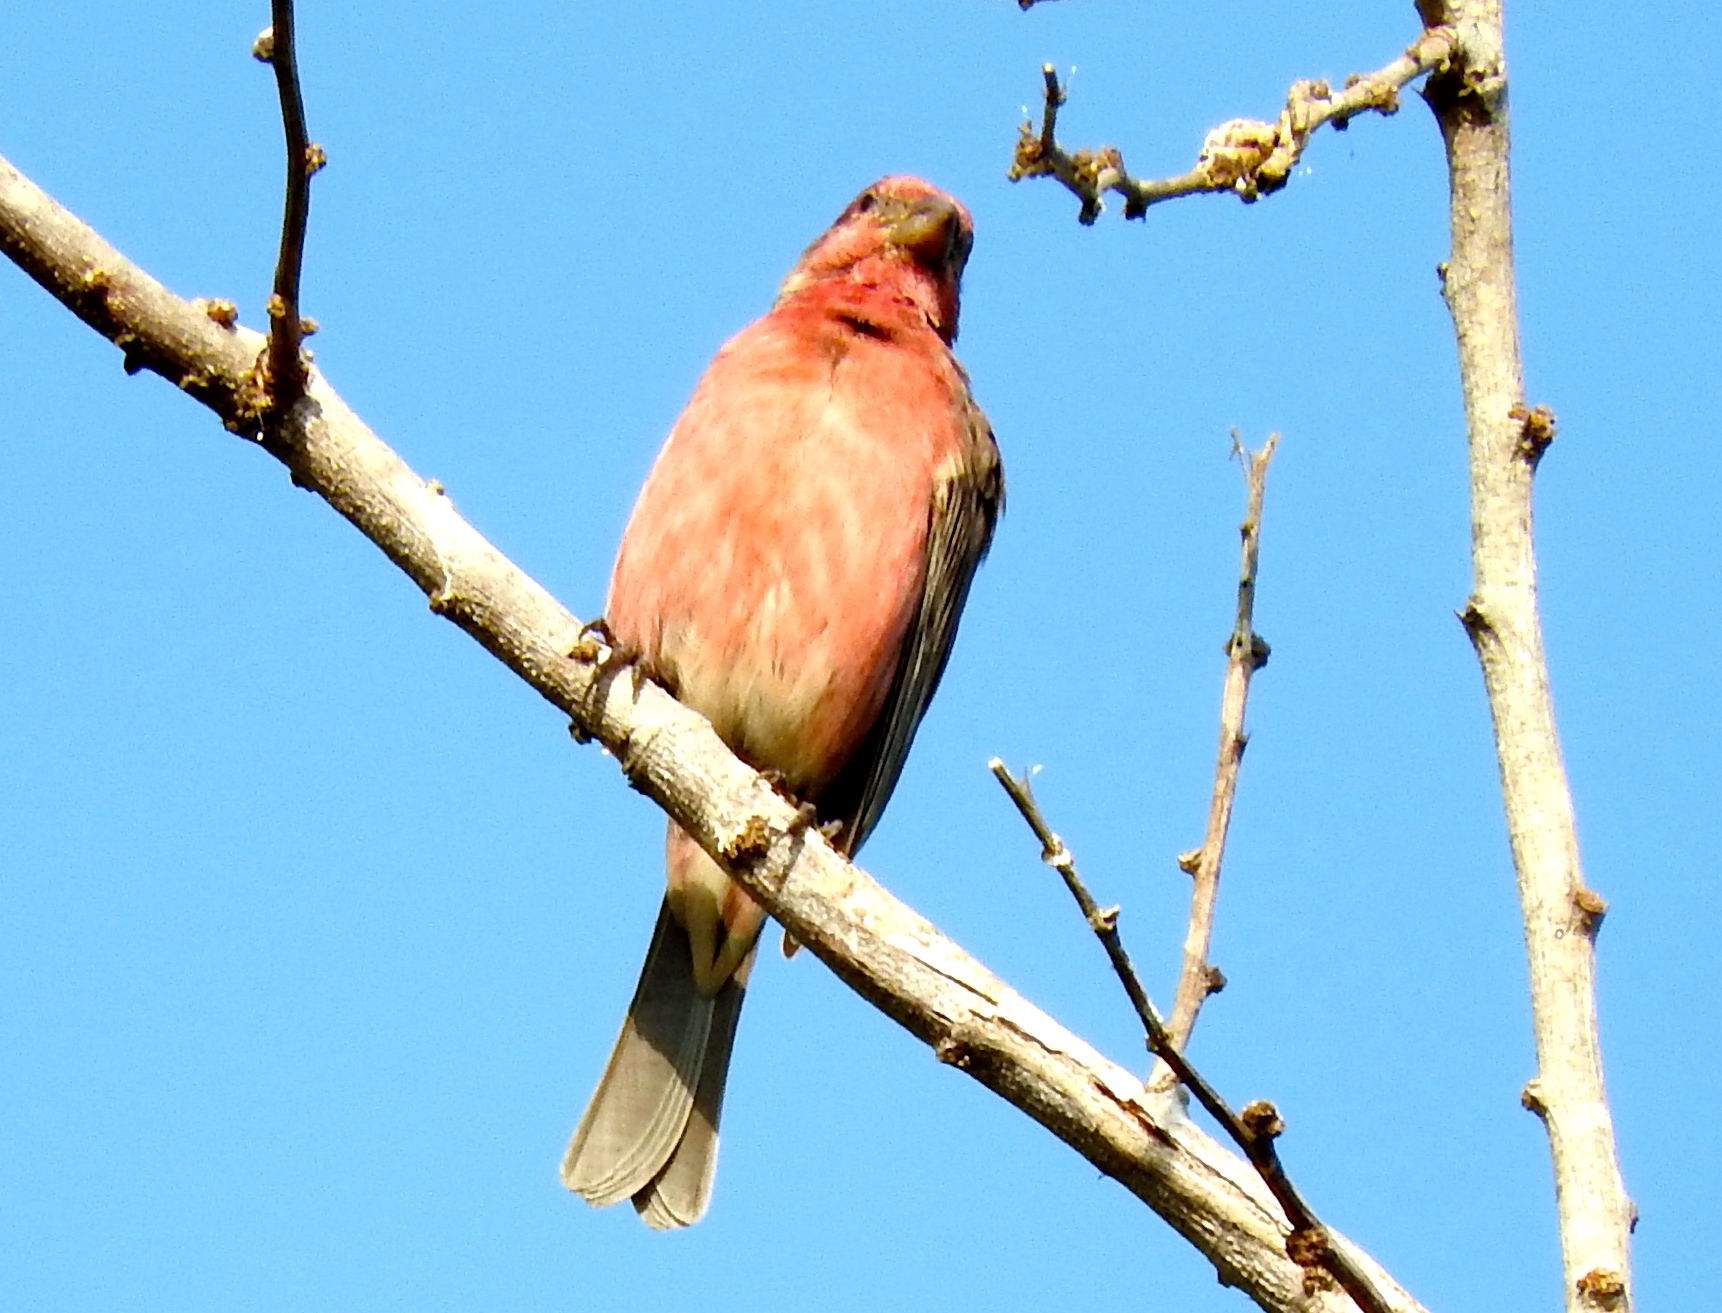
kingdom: Animalia
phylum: Chordata
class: Aves
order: Passeriformes
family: Fringillidae
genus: Haemorhous
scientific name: Haemorhous mexicanus
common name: House finch
